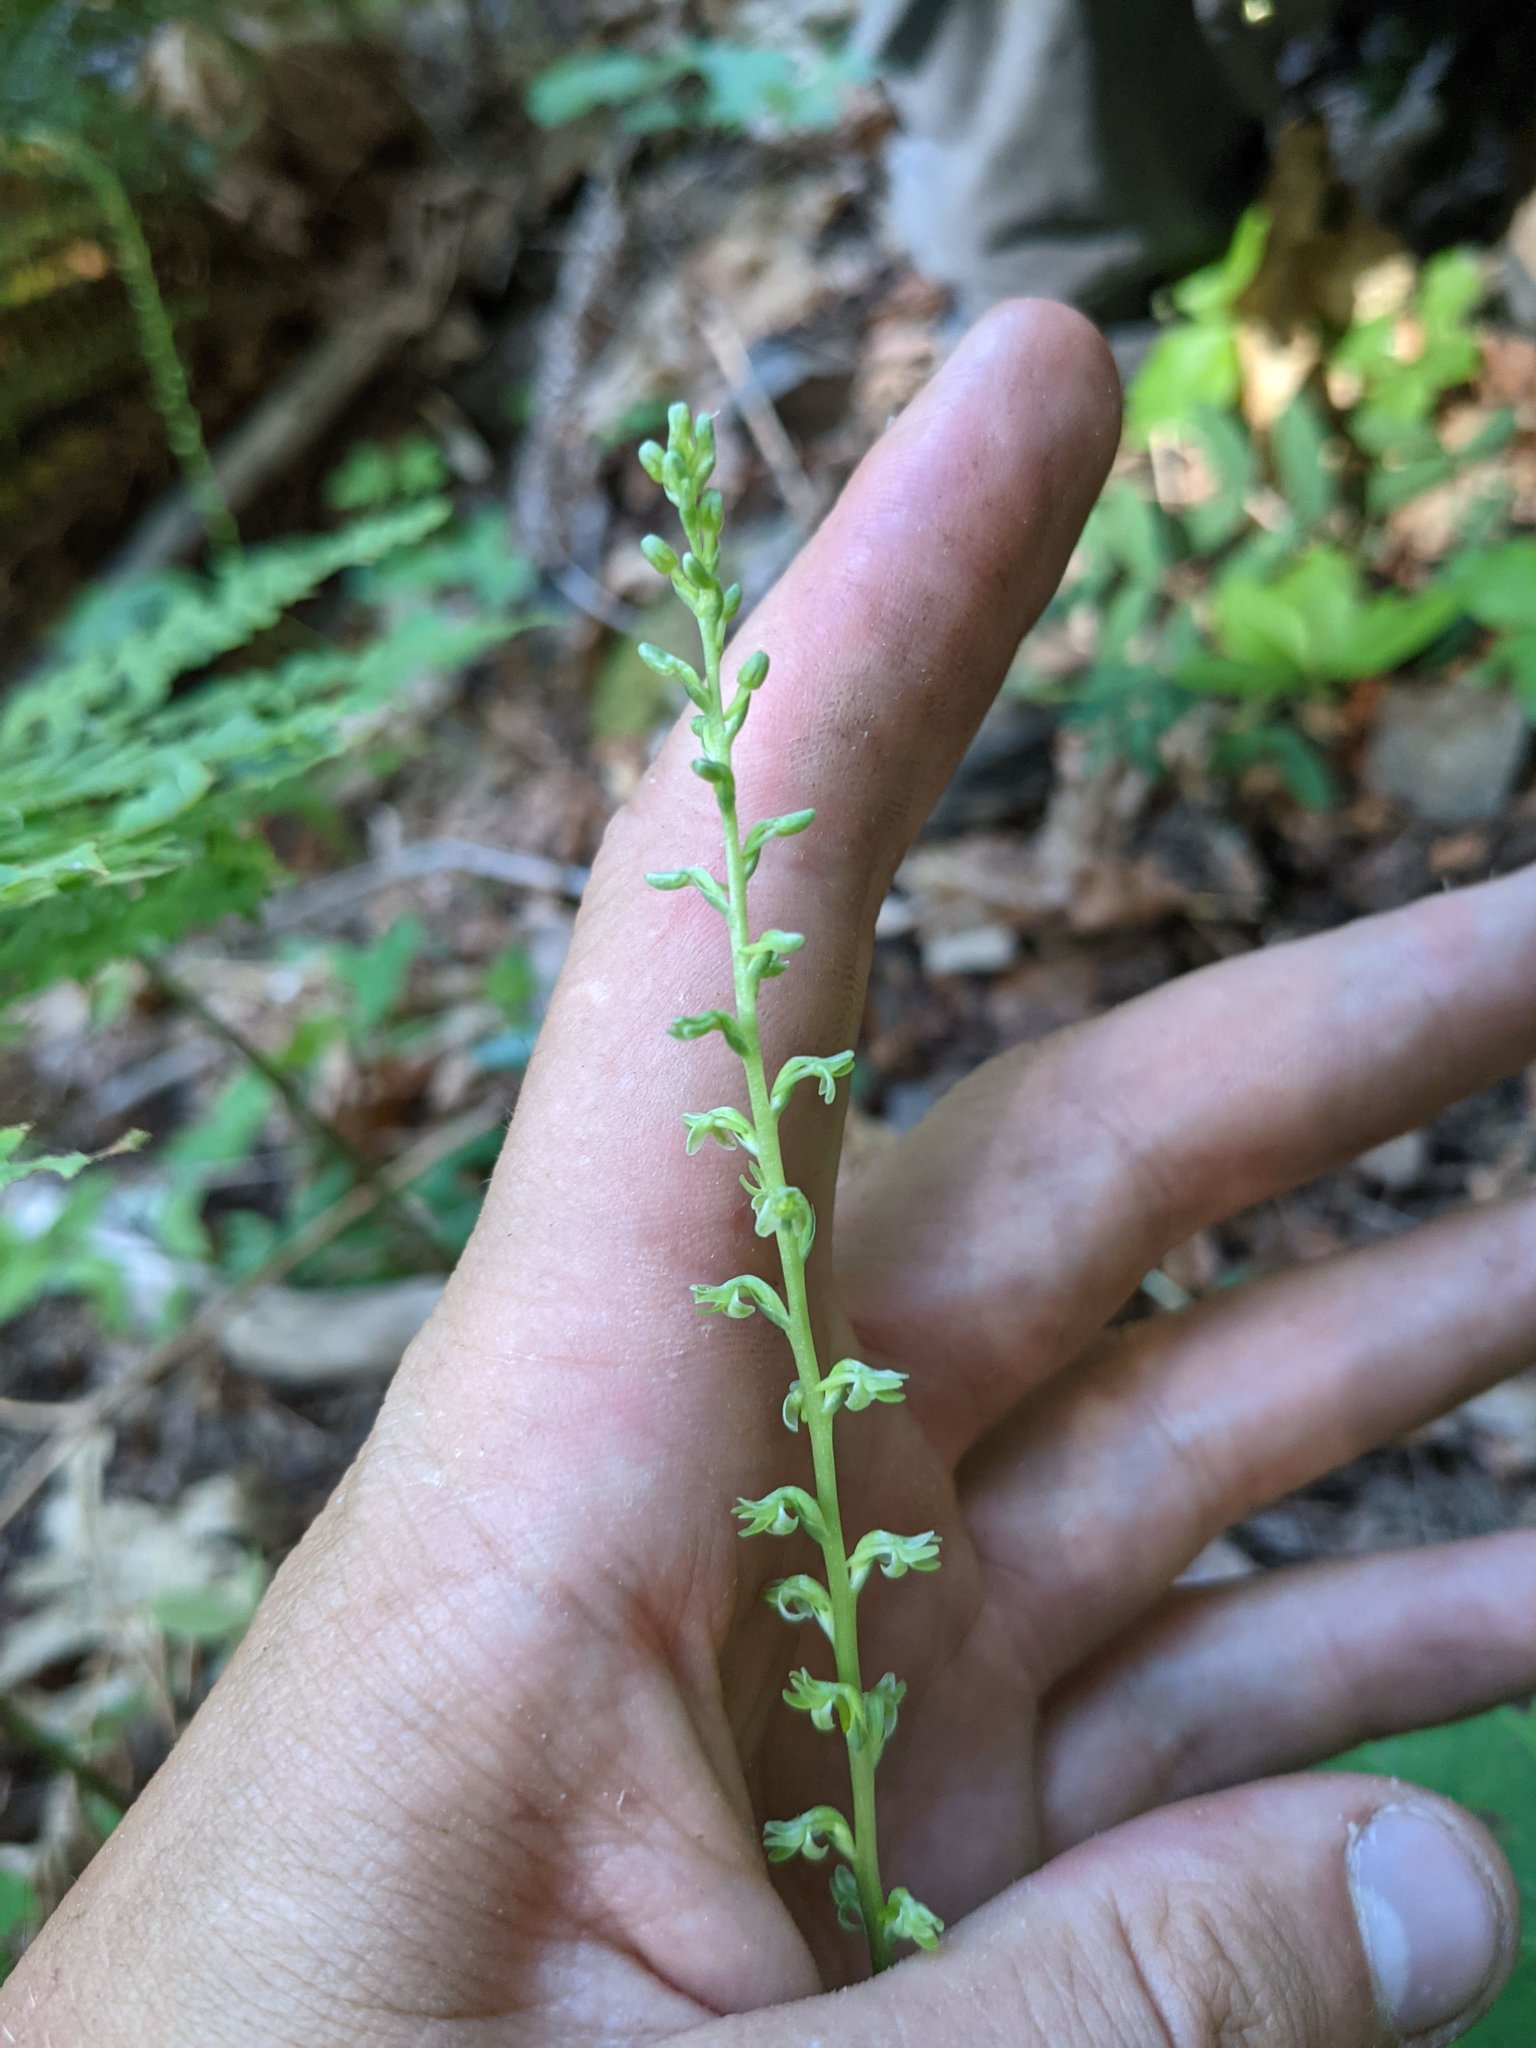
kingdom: Plantae
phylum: Tracheophyta
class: Liliopsida
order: Asparagales
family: Orchidaceae
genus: Platanthera
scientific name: Platanthera unalascensis
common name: Alaska bog orchid
